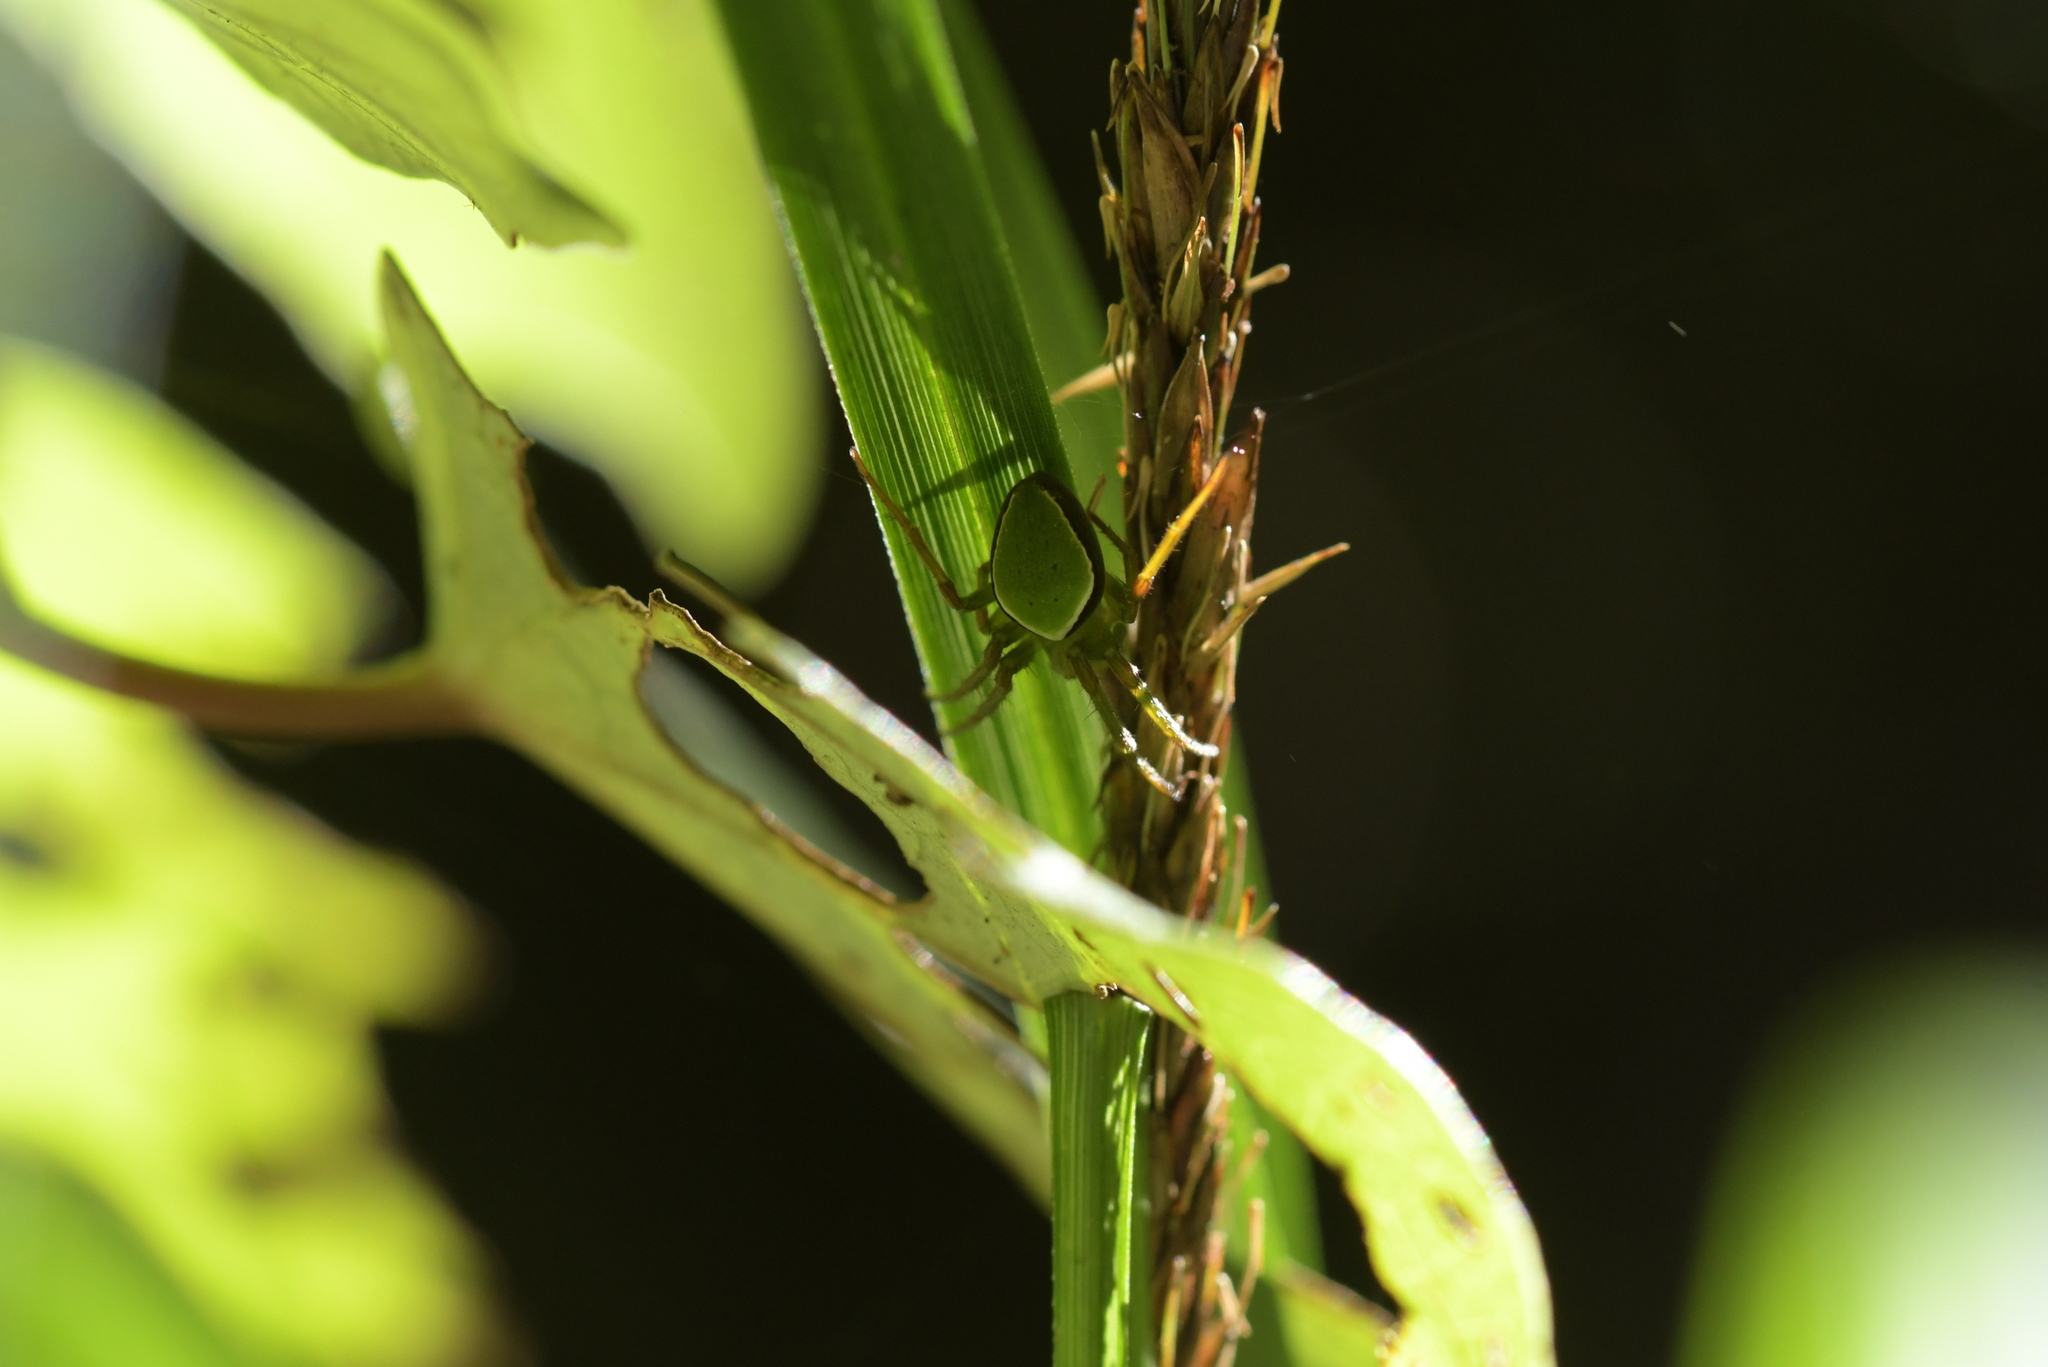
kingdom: Animalia
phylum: Arthropoda
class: Arachnida
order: Araneae
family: Araneidae
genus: Colaranea
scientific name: Colaranea viriditas
